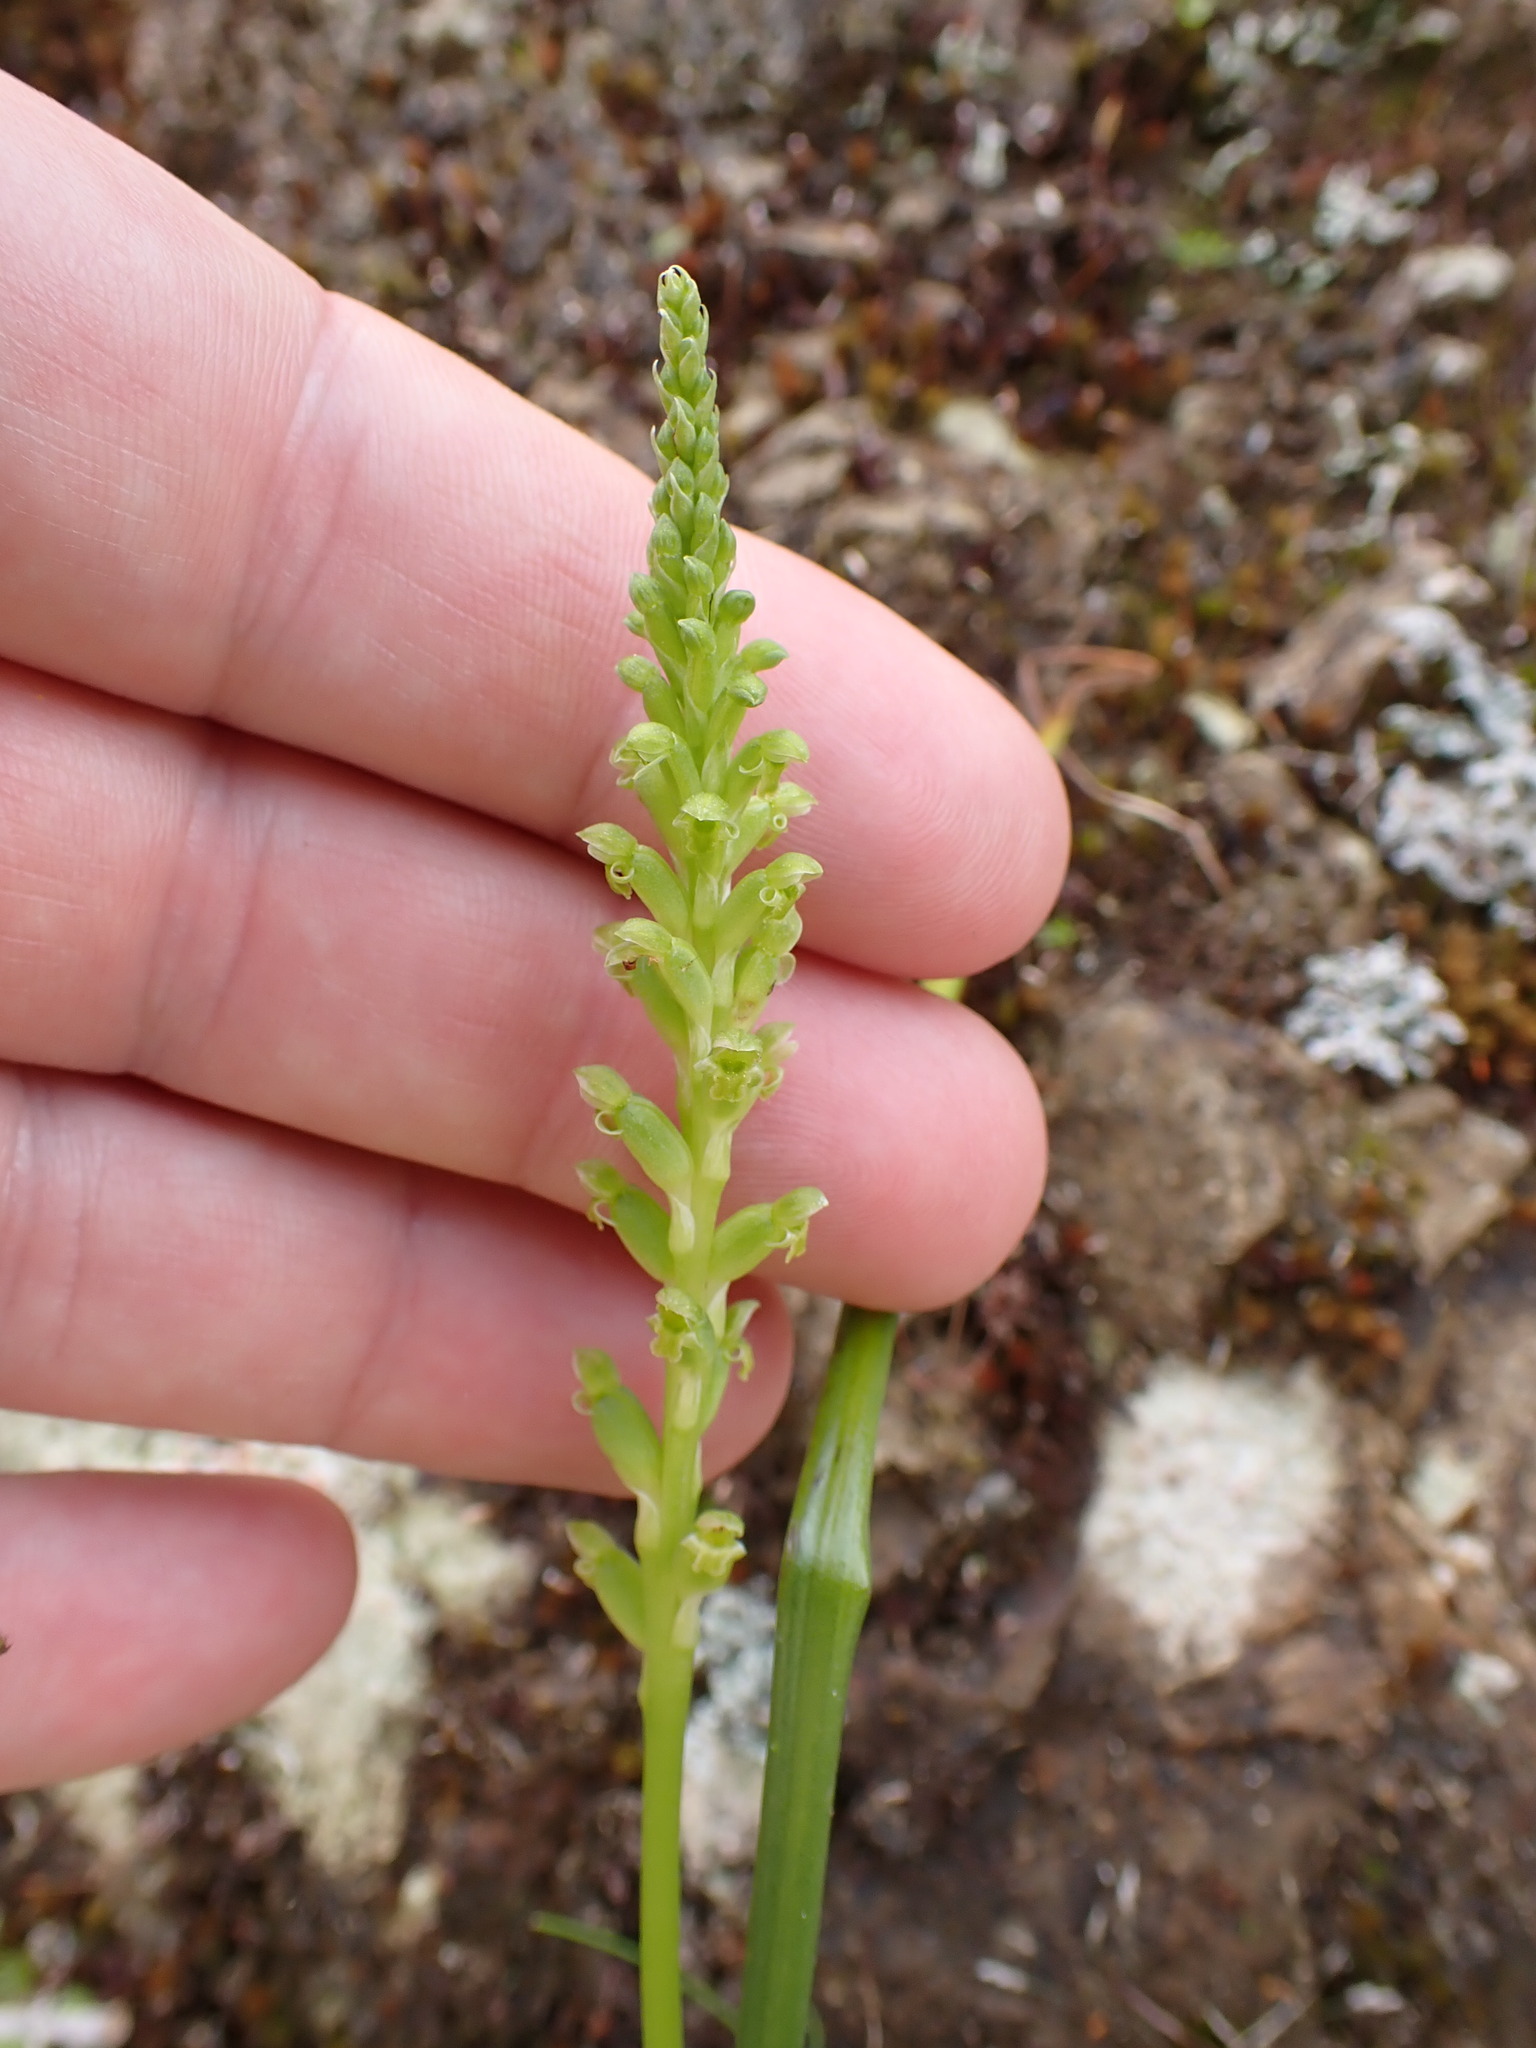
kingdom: Plantae
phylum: Tracheophyta
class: Liliopsida
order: Asparagales
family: Orchidaceae
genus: Microtis
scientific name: Microtis unifolia
